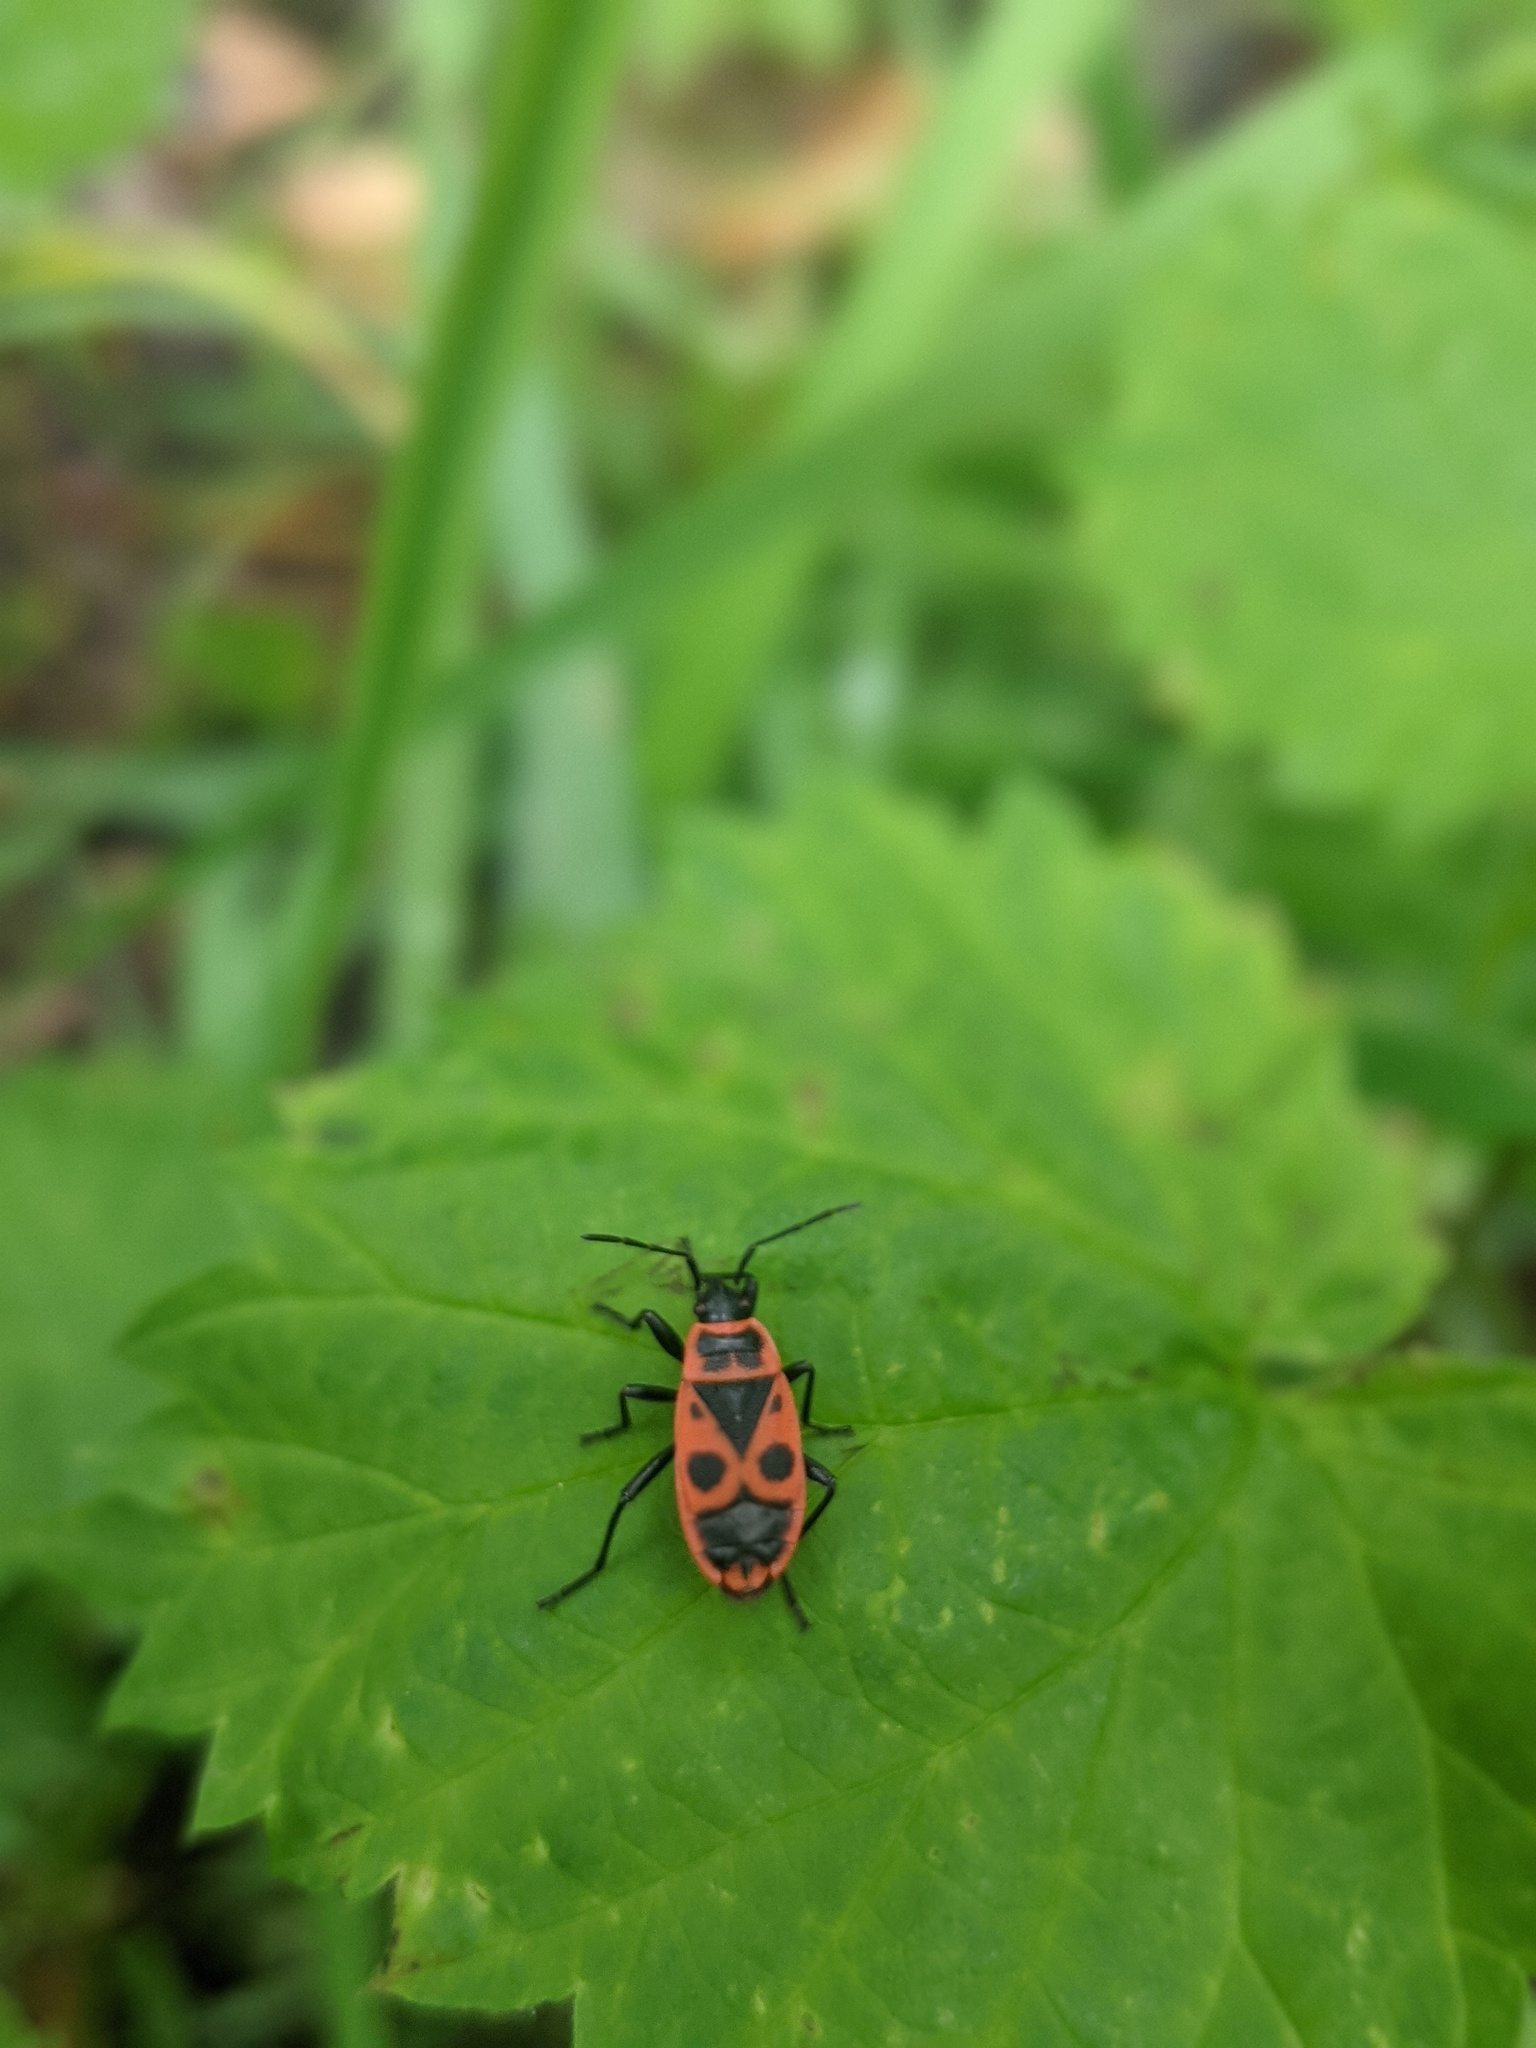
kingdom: Animalia
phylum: Arthropoda
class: Insecta
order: Hemiptera
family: Pyrrhocoridae
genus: Pyrrhocoris
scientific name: Pyrrhocoris apterus
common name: Firebug
